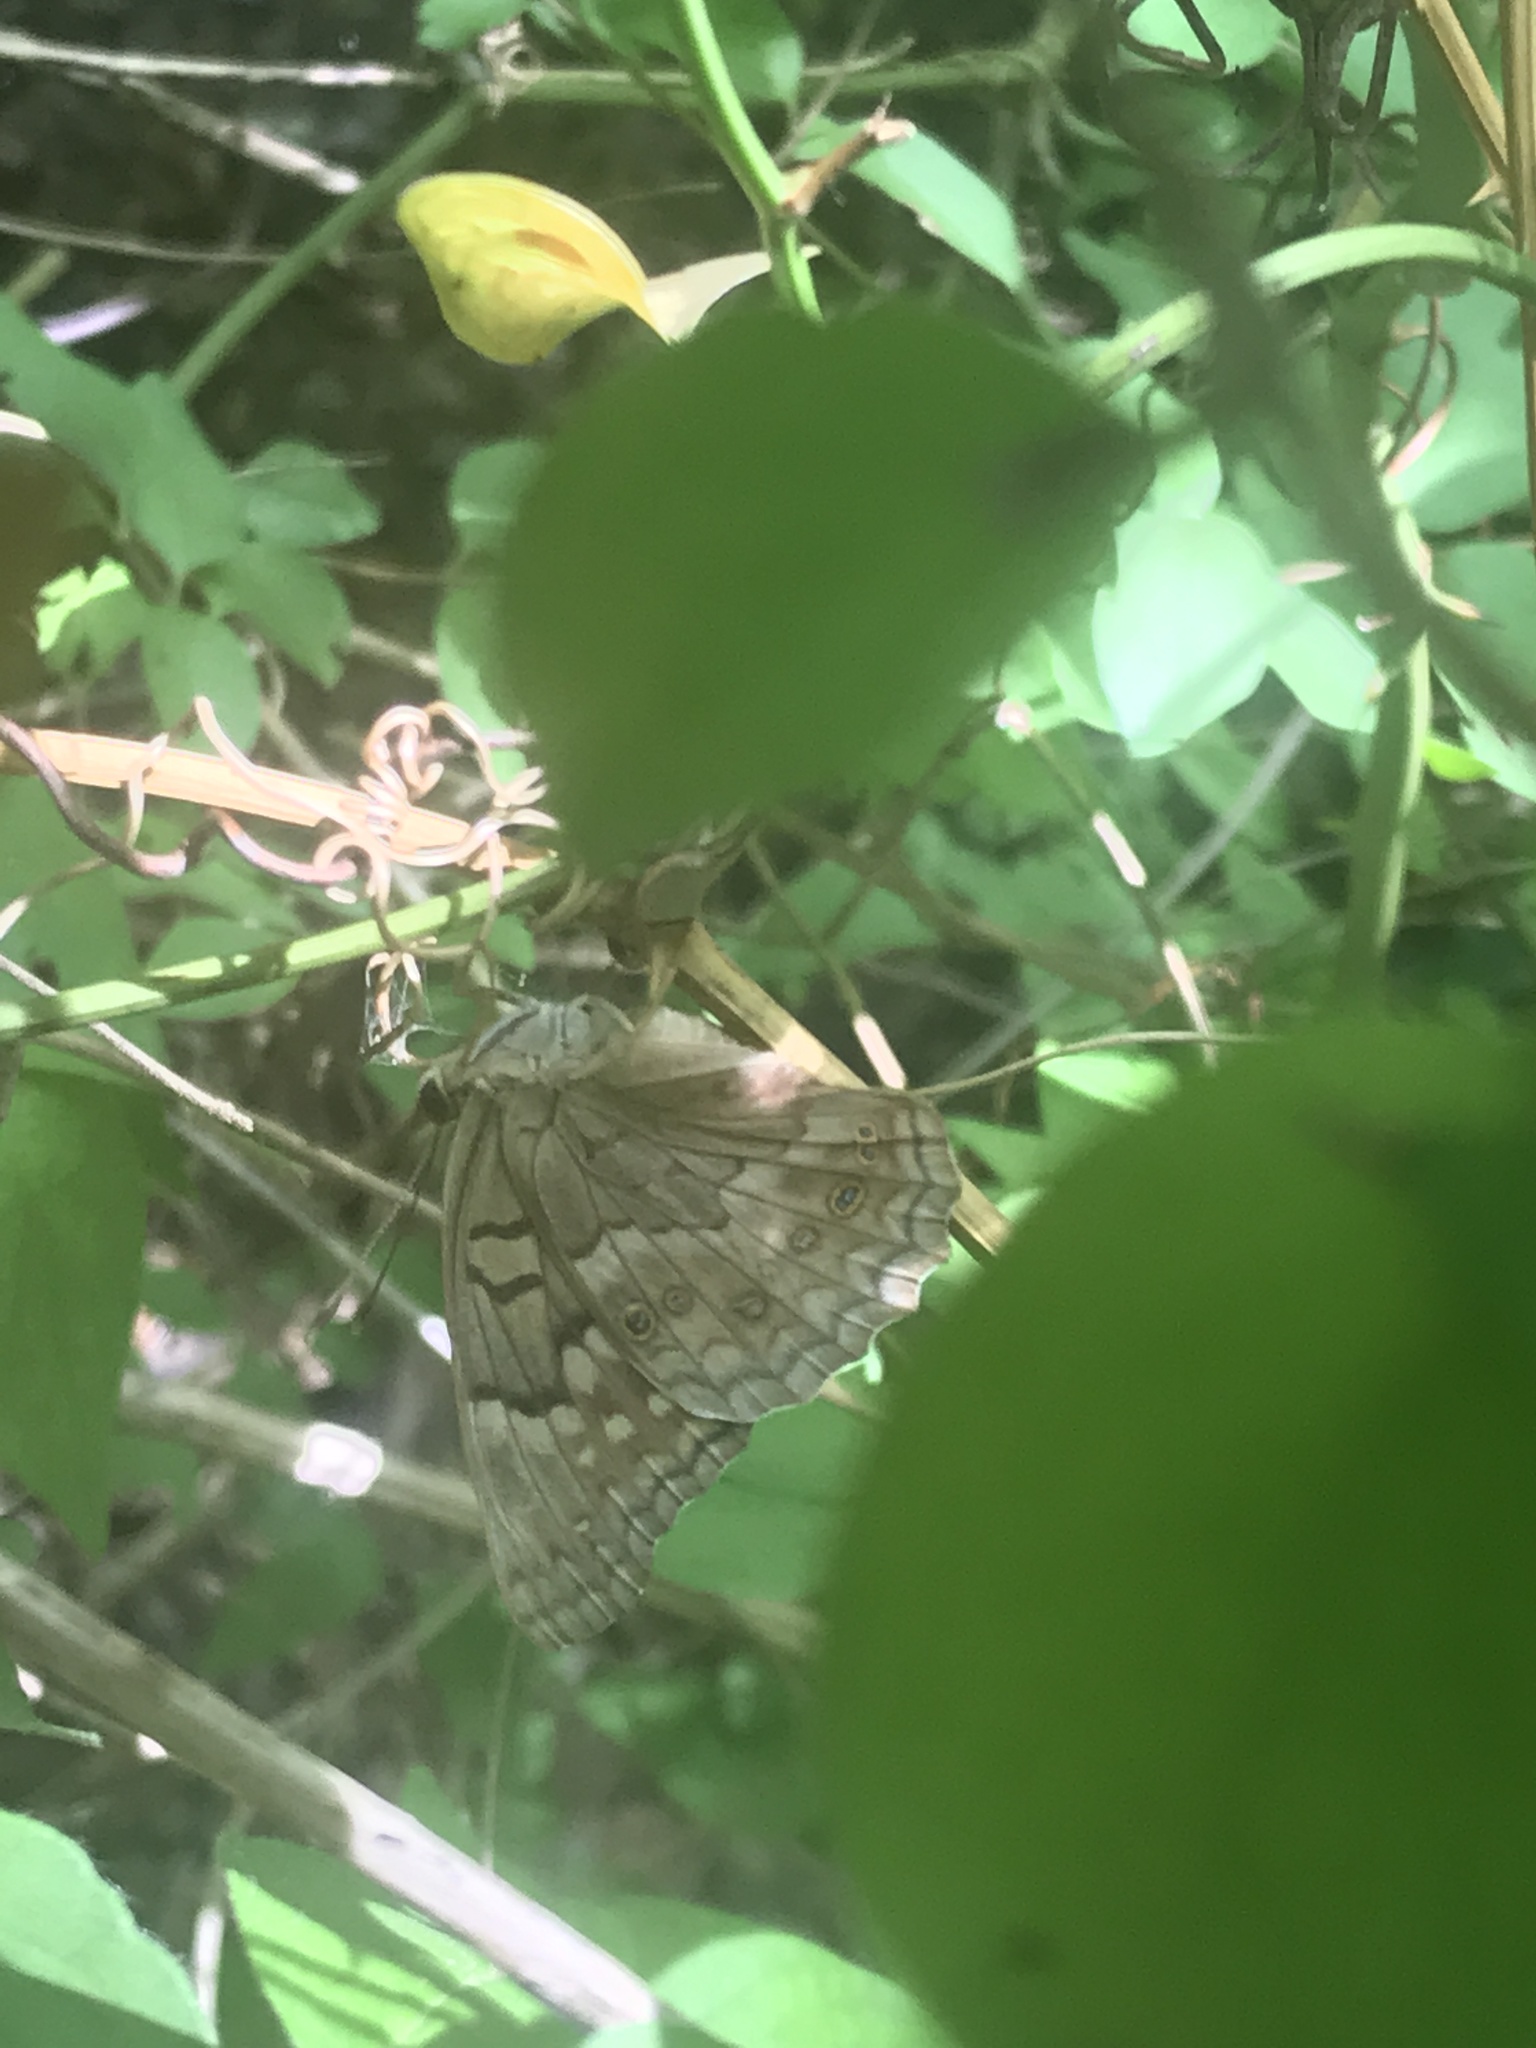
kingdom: Animalia
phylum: Arthropoda
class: Insecta
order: Lepidoptera
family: Nymphalidae
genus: Asterocampa
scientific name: Asterocampa clyton
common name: Tawny emperor
